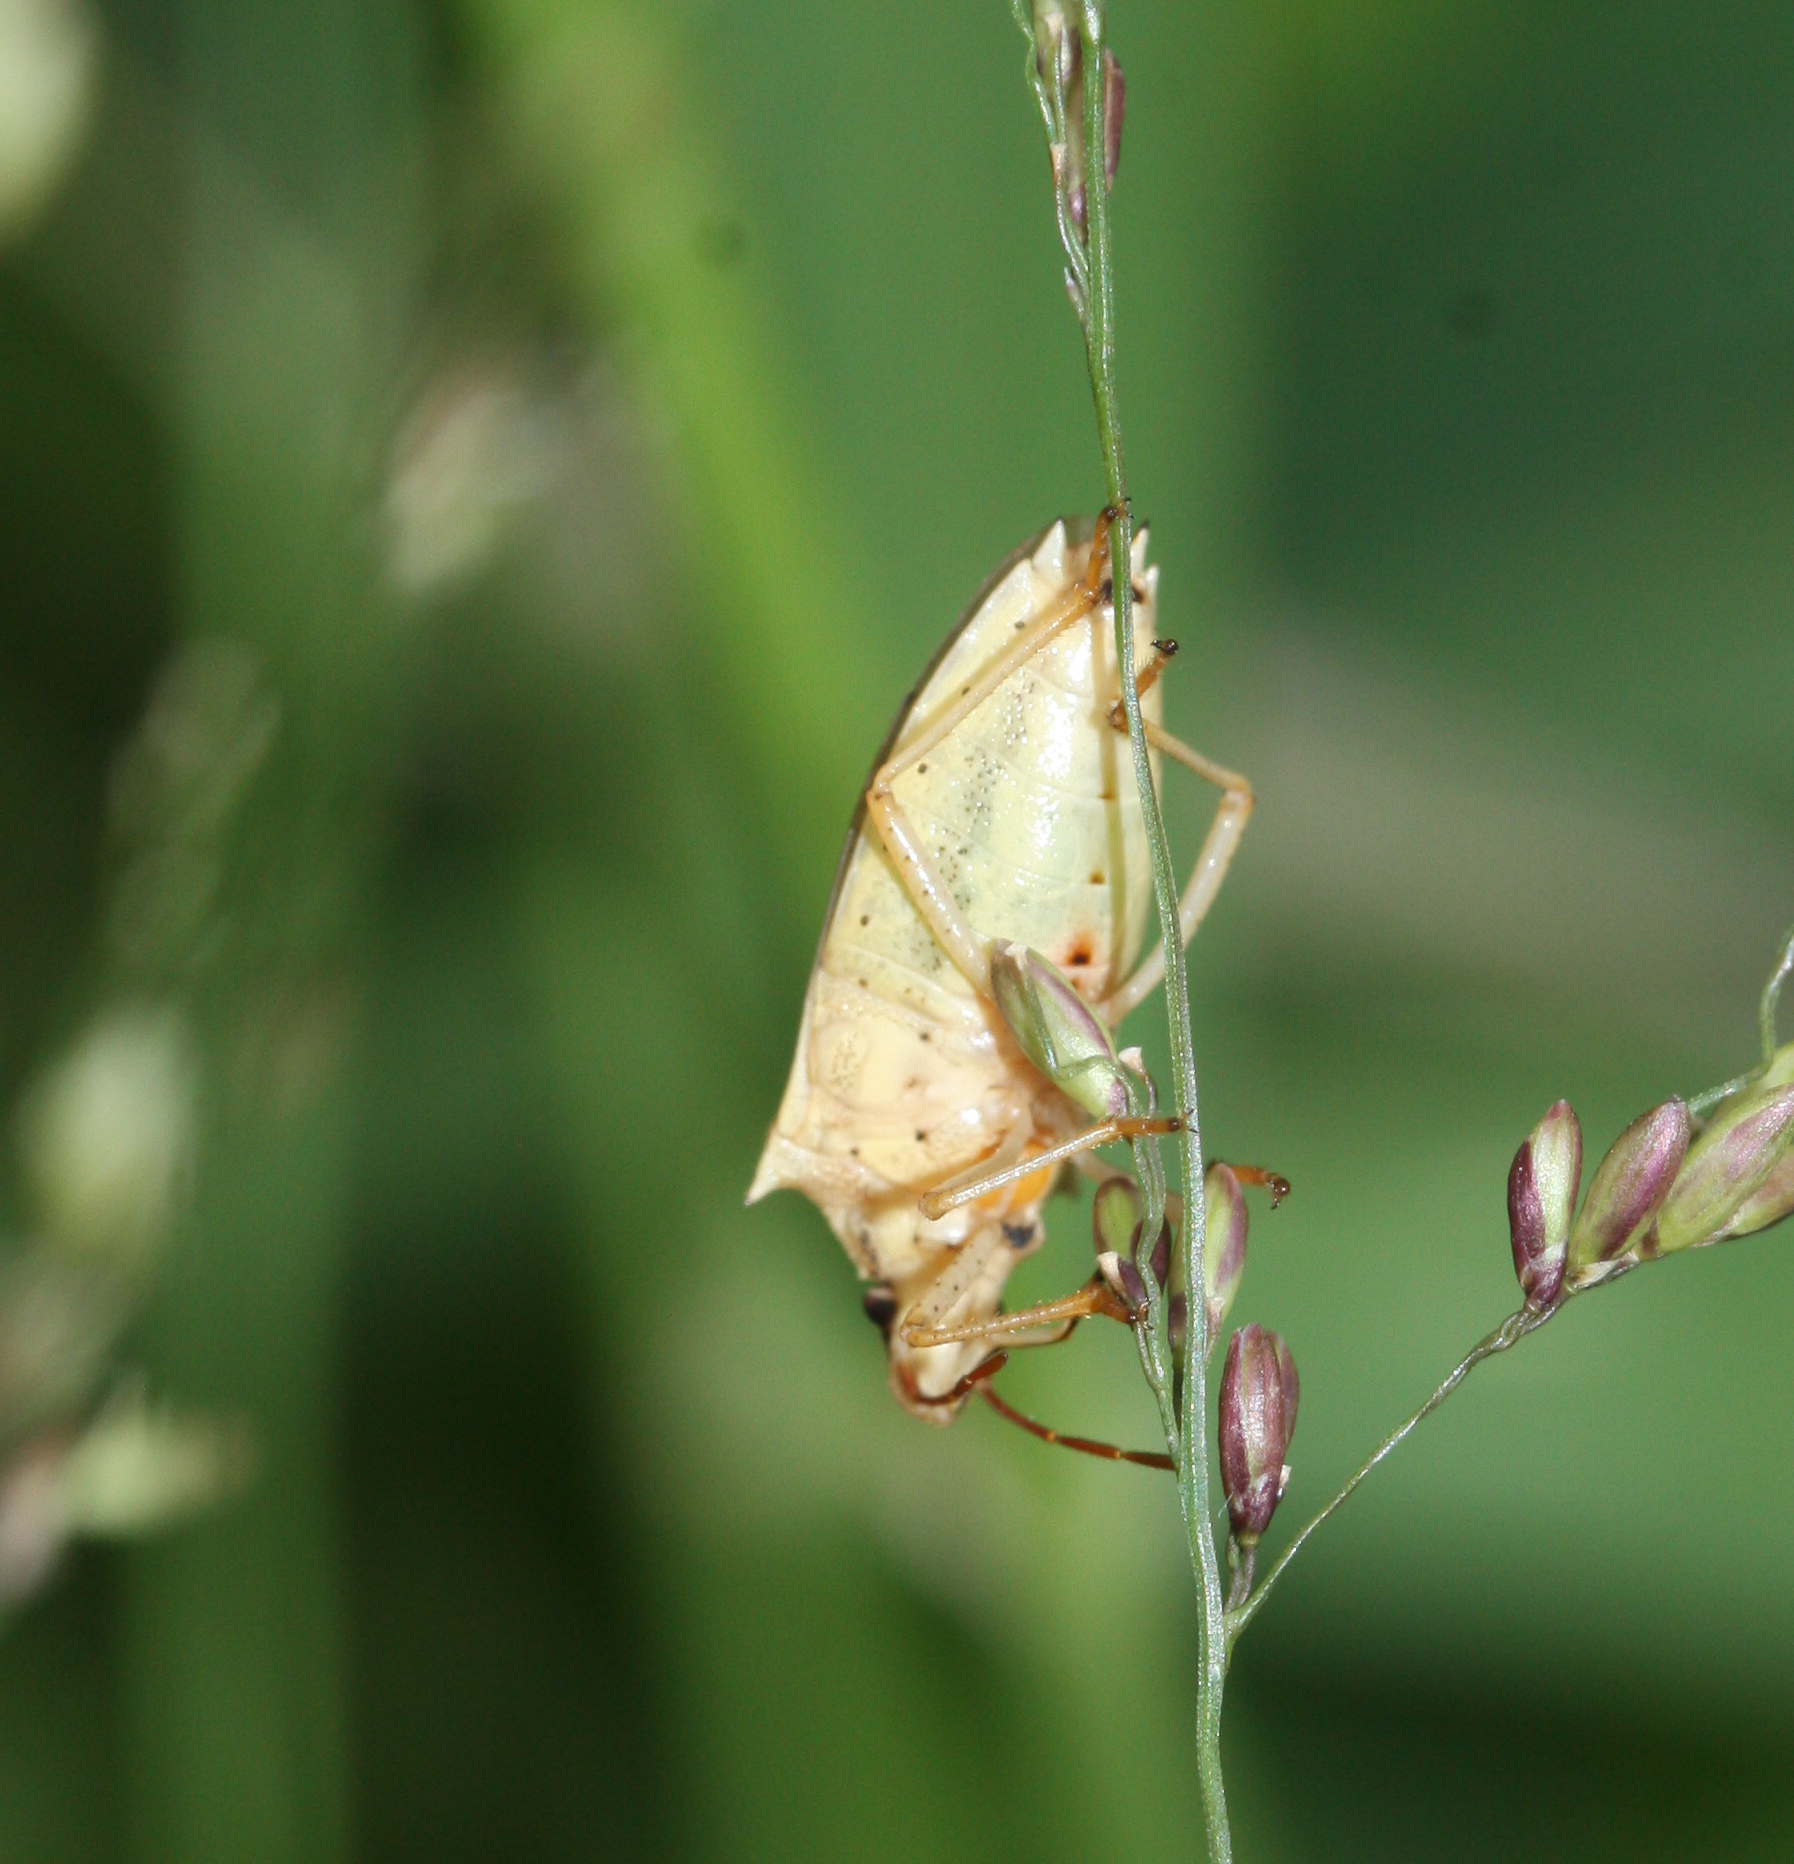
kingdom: Animalia
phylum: Arthropoda
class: Insecta
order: Hemiptera
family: Pentatomidae
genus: Oebalus
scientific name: Oebalus pugnax
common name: Rice stink bug
